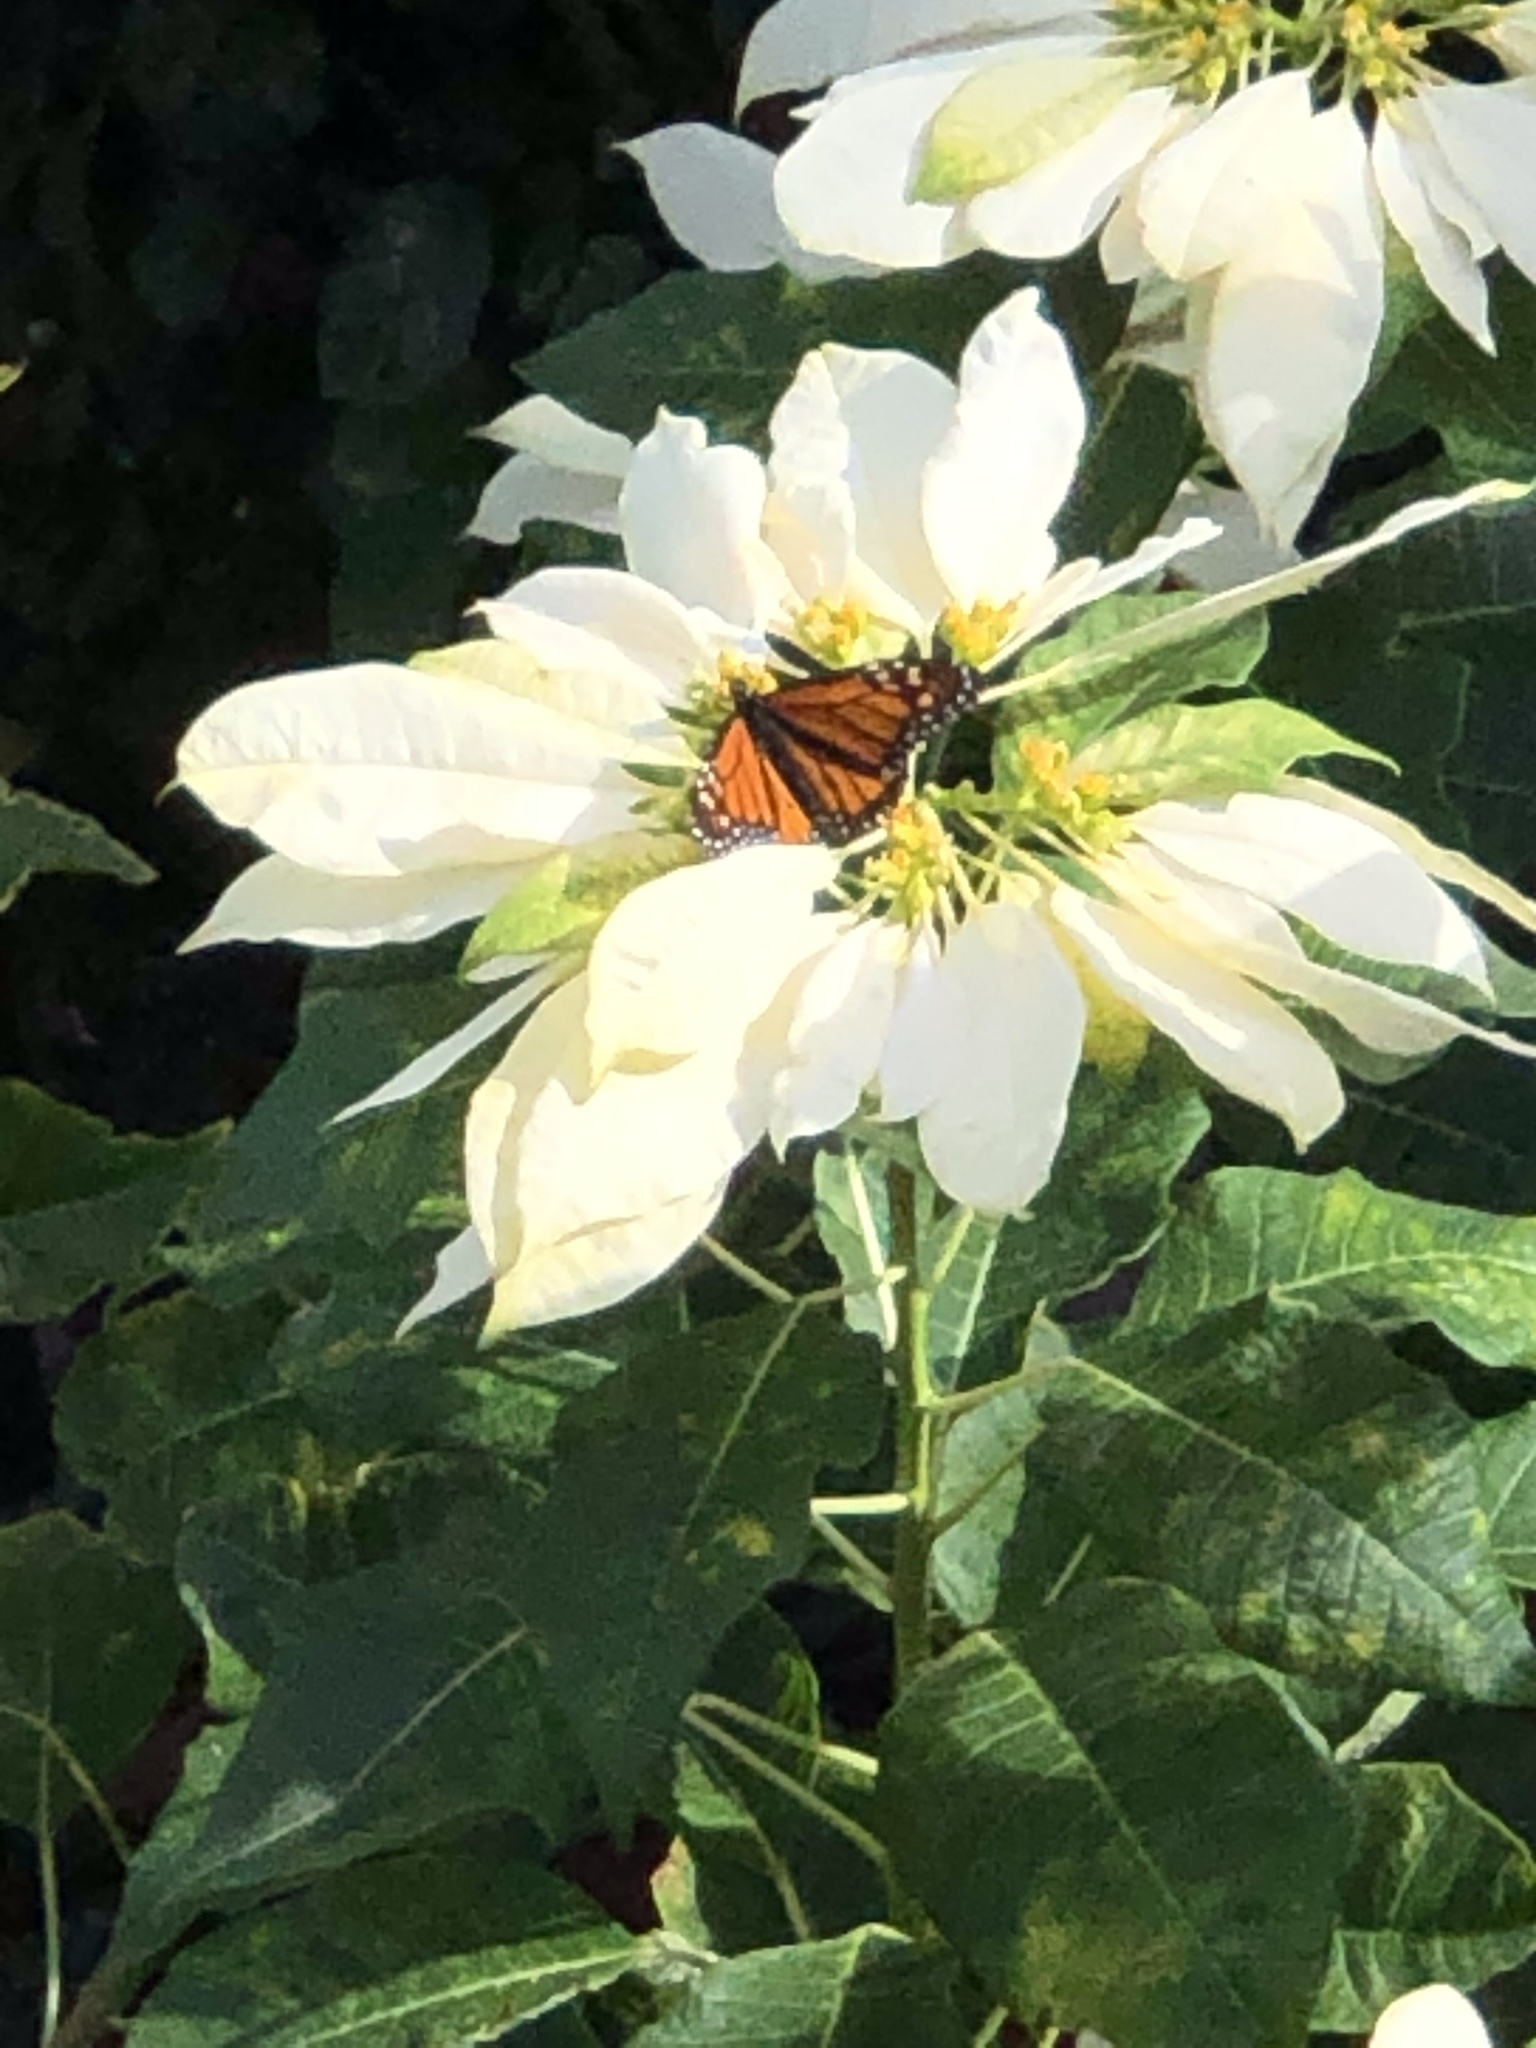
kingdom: Animalia
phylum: Arthropoda
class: Insecta
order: Lepidoptera
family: Nymphalidae
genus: Danaus
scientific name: Danaus plexippus
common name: Monarch
